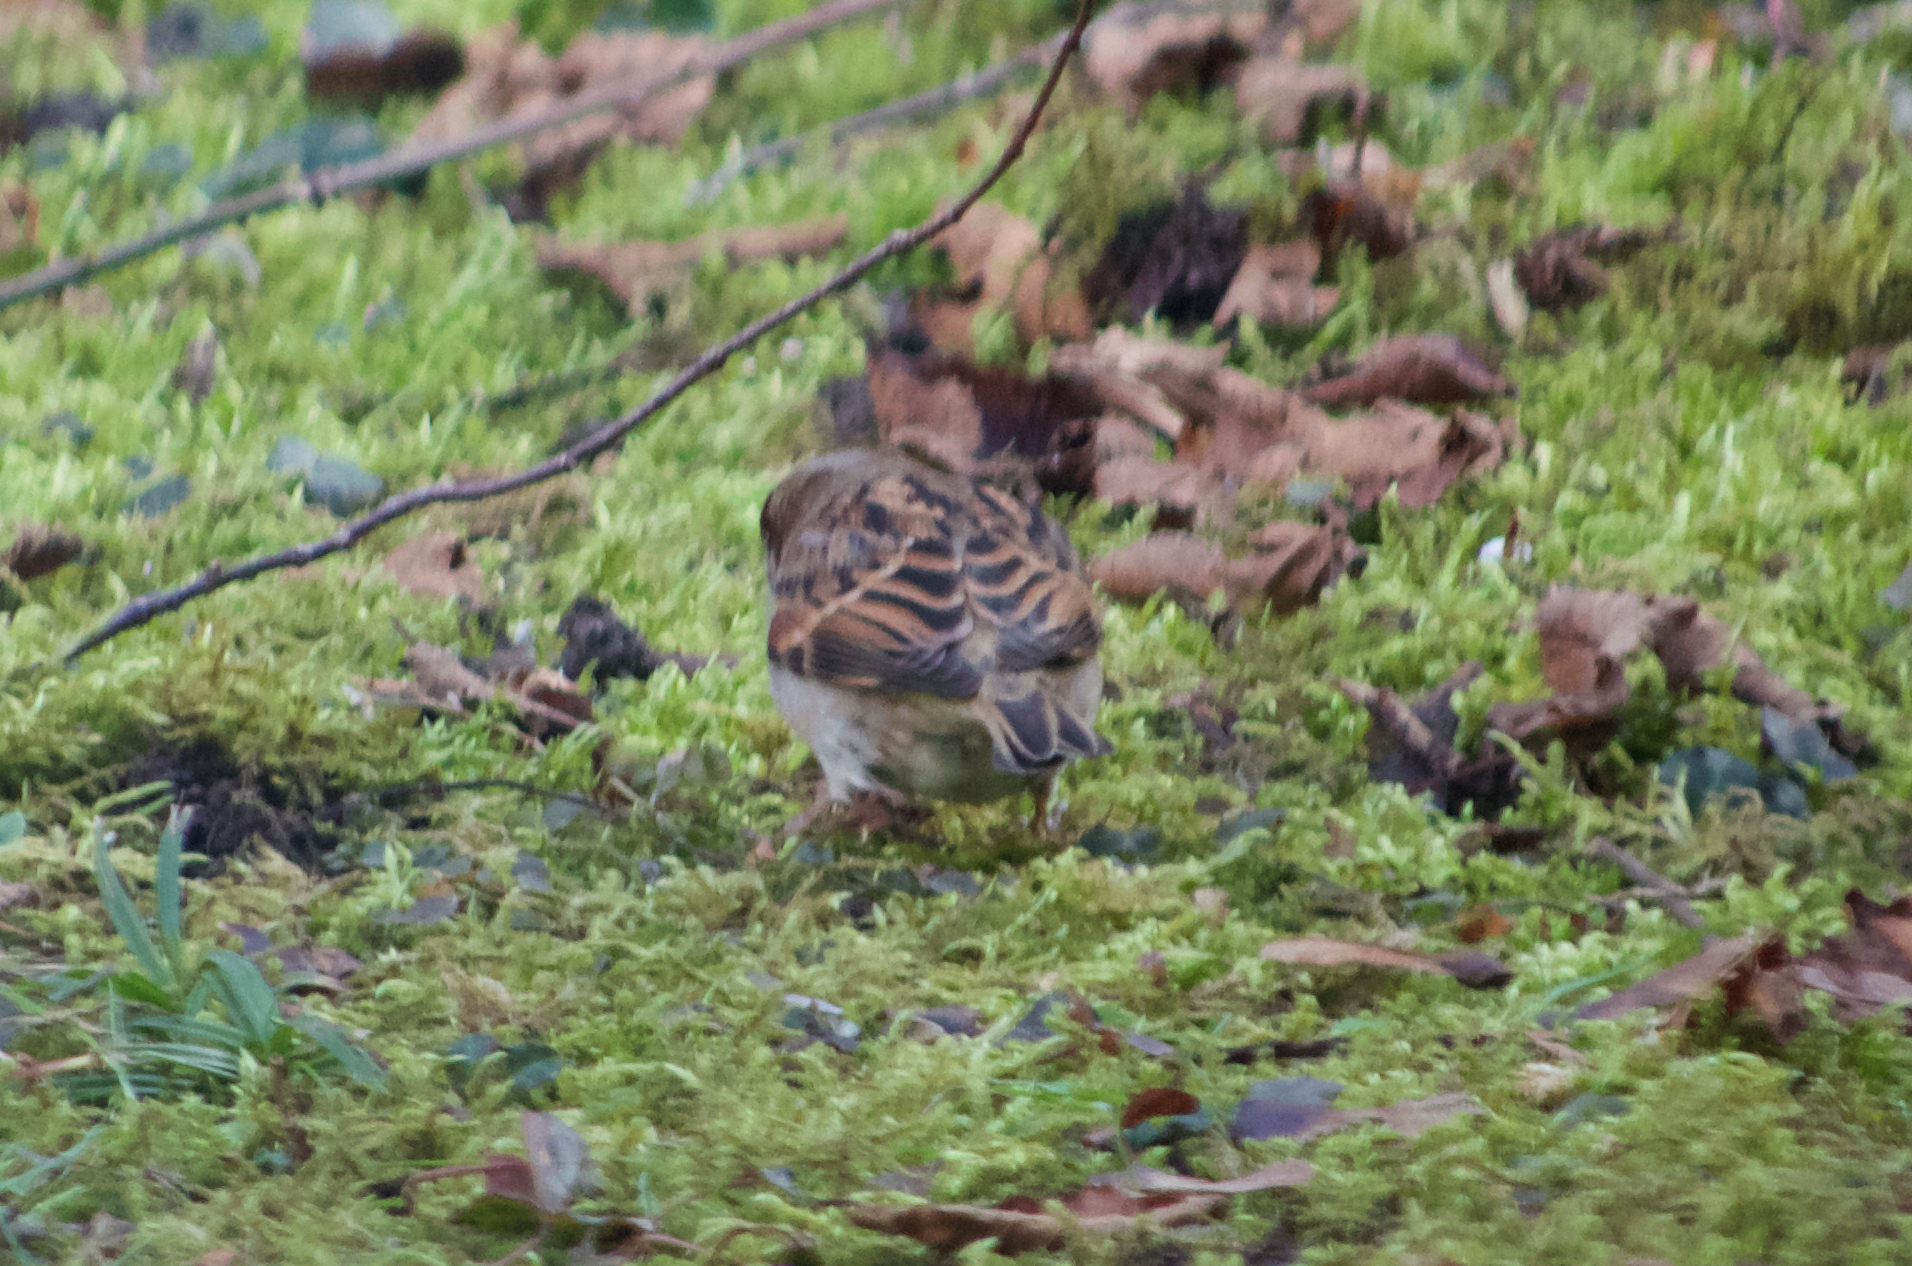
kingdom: Animalia
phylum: Chordata
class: Aves
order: Passeriformes
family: Passeridae
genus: Passer
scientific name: Passer domesticus
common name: House sparrow
